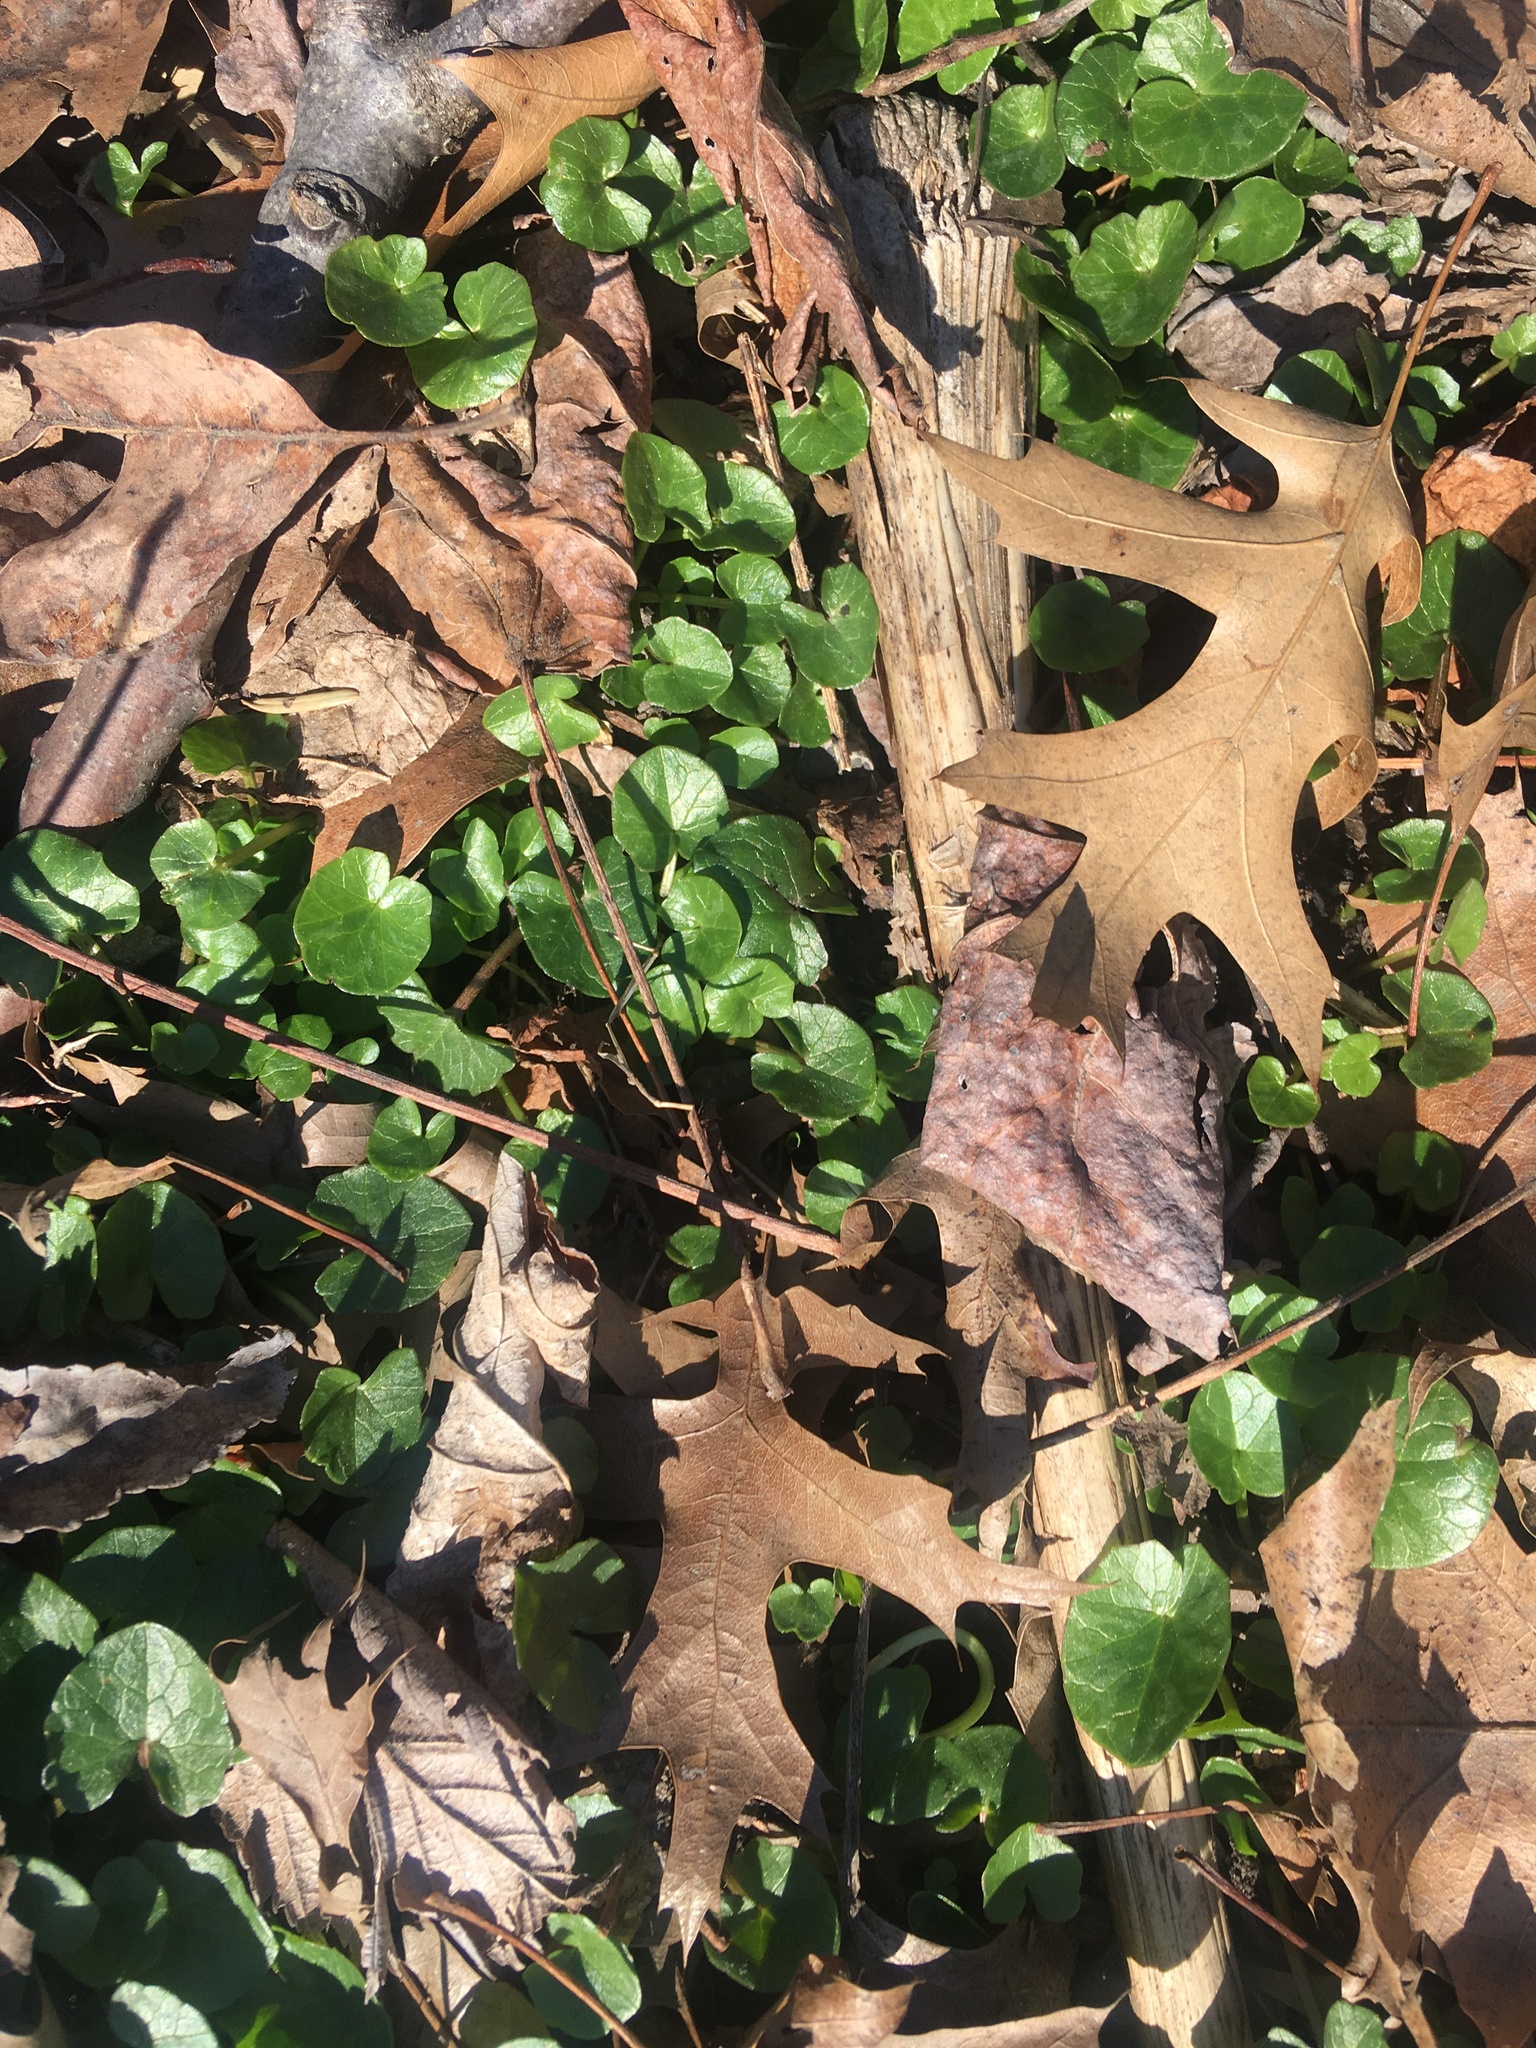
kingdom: Plantae
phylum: Tracheophyta
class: Magnoliopsida
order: Ranunculales
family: Ranunculaceae
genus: Ficaria
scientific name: Ficaria verna
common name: Lesser celandine
